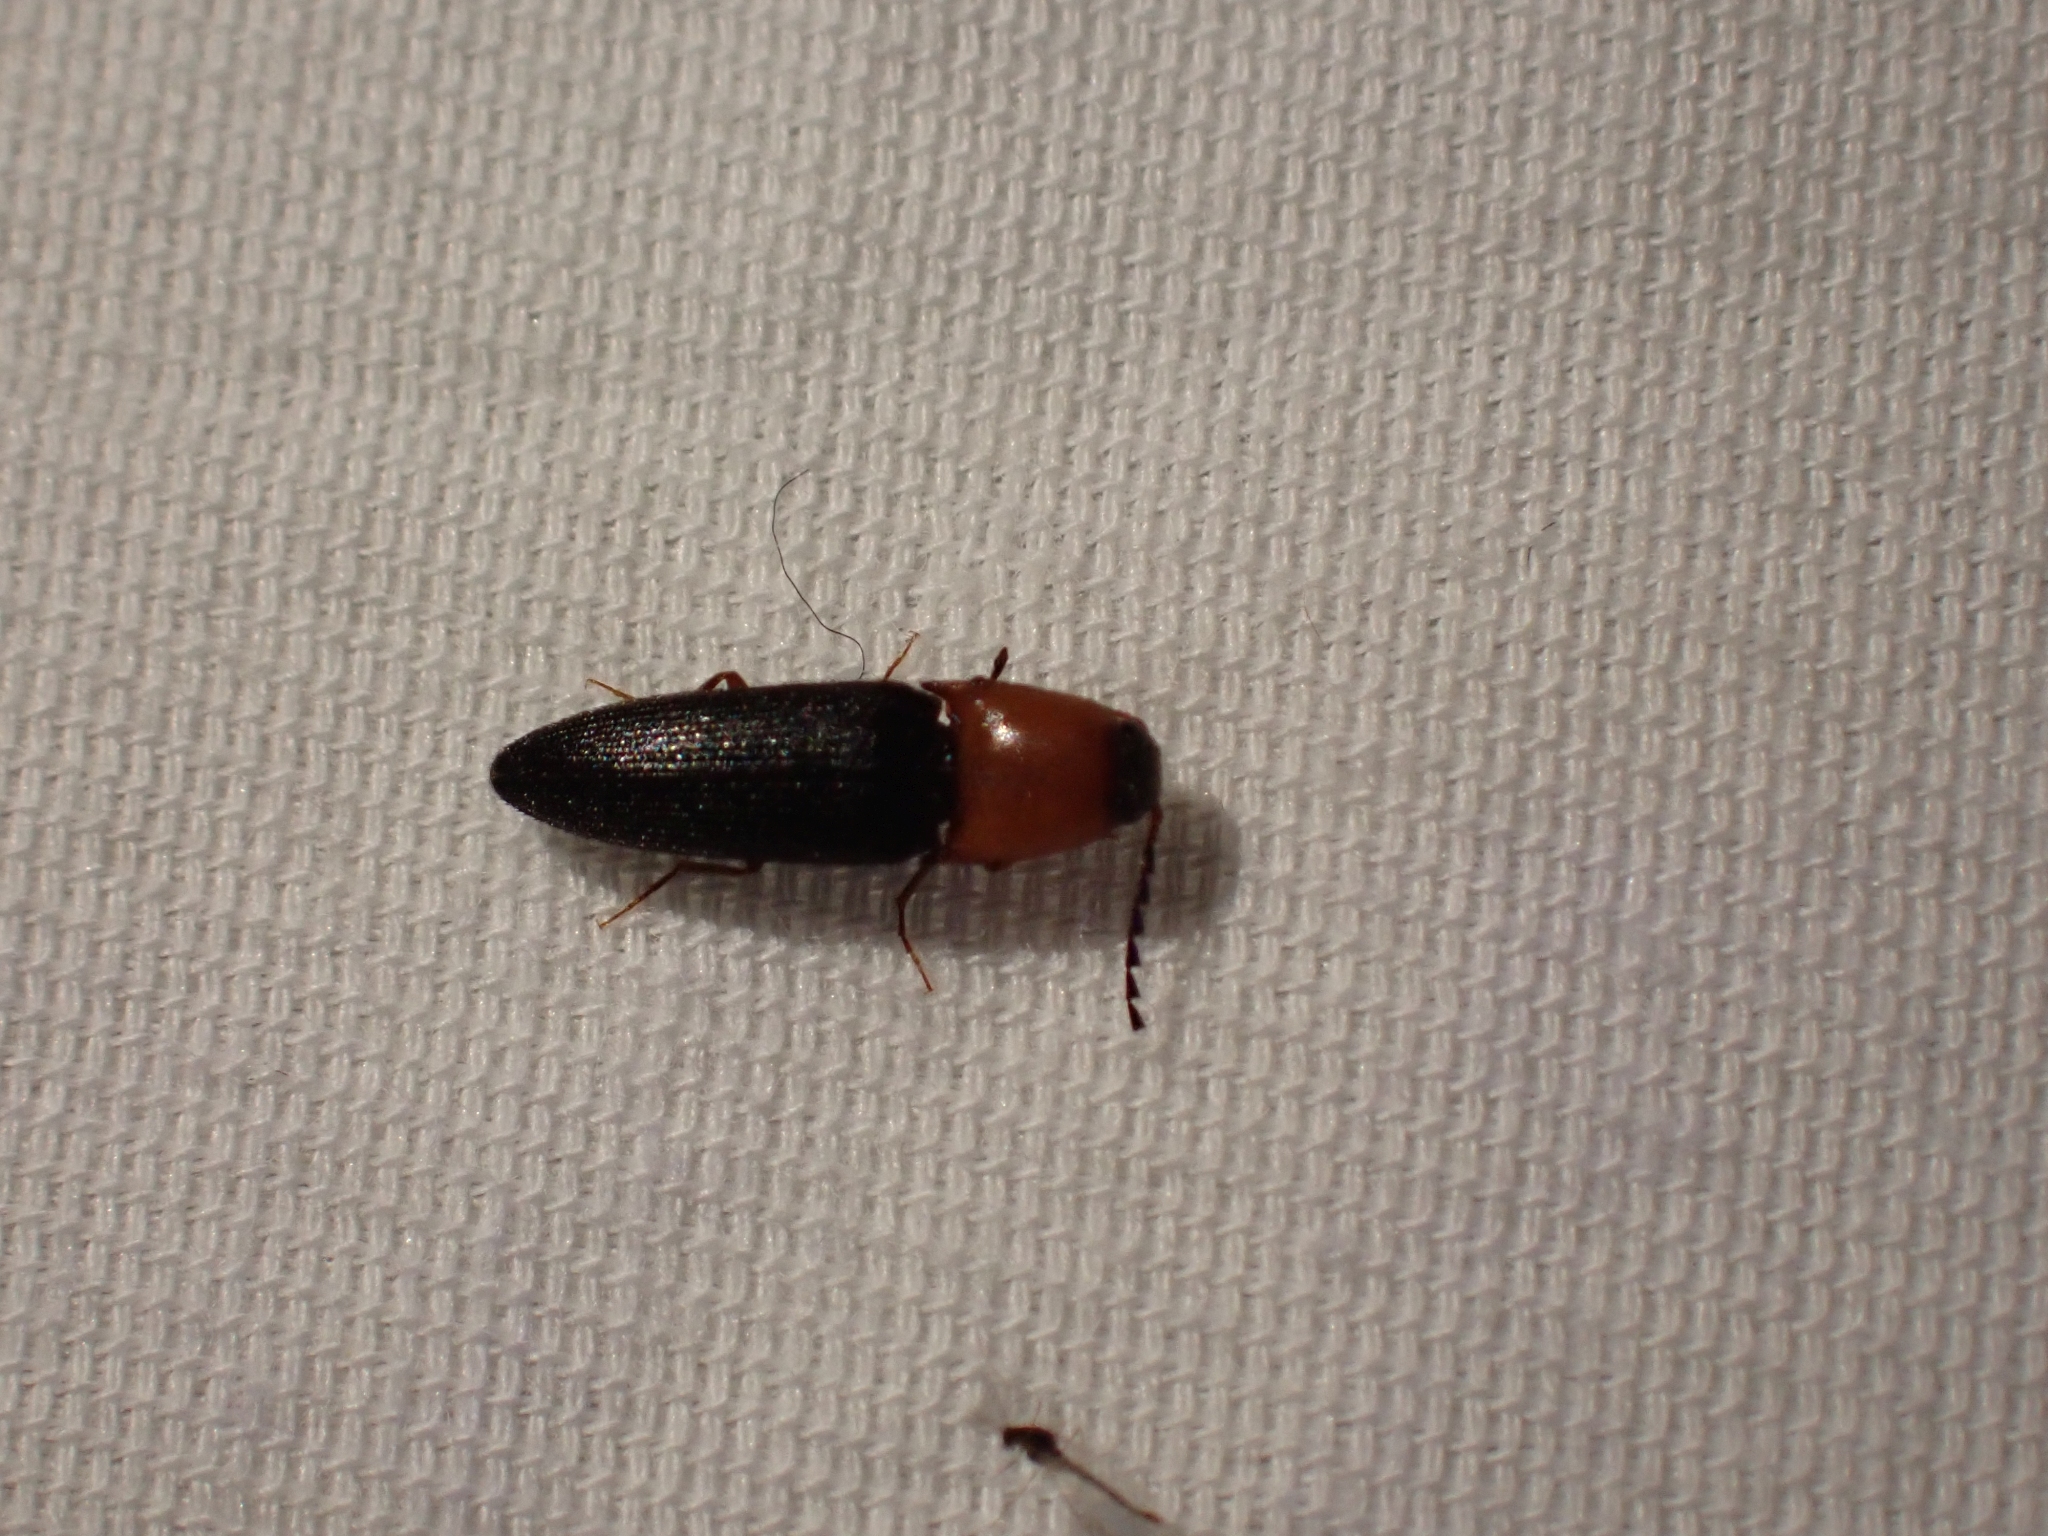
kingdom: Animalia
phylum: Arthropoda
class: Insecta
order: Coleoptera
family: Elateridae
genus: Megapenthes
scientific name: Megapenthes nigriventris
